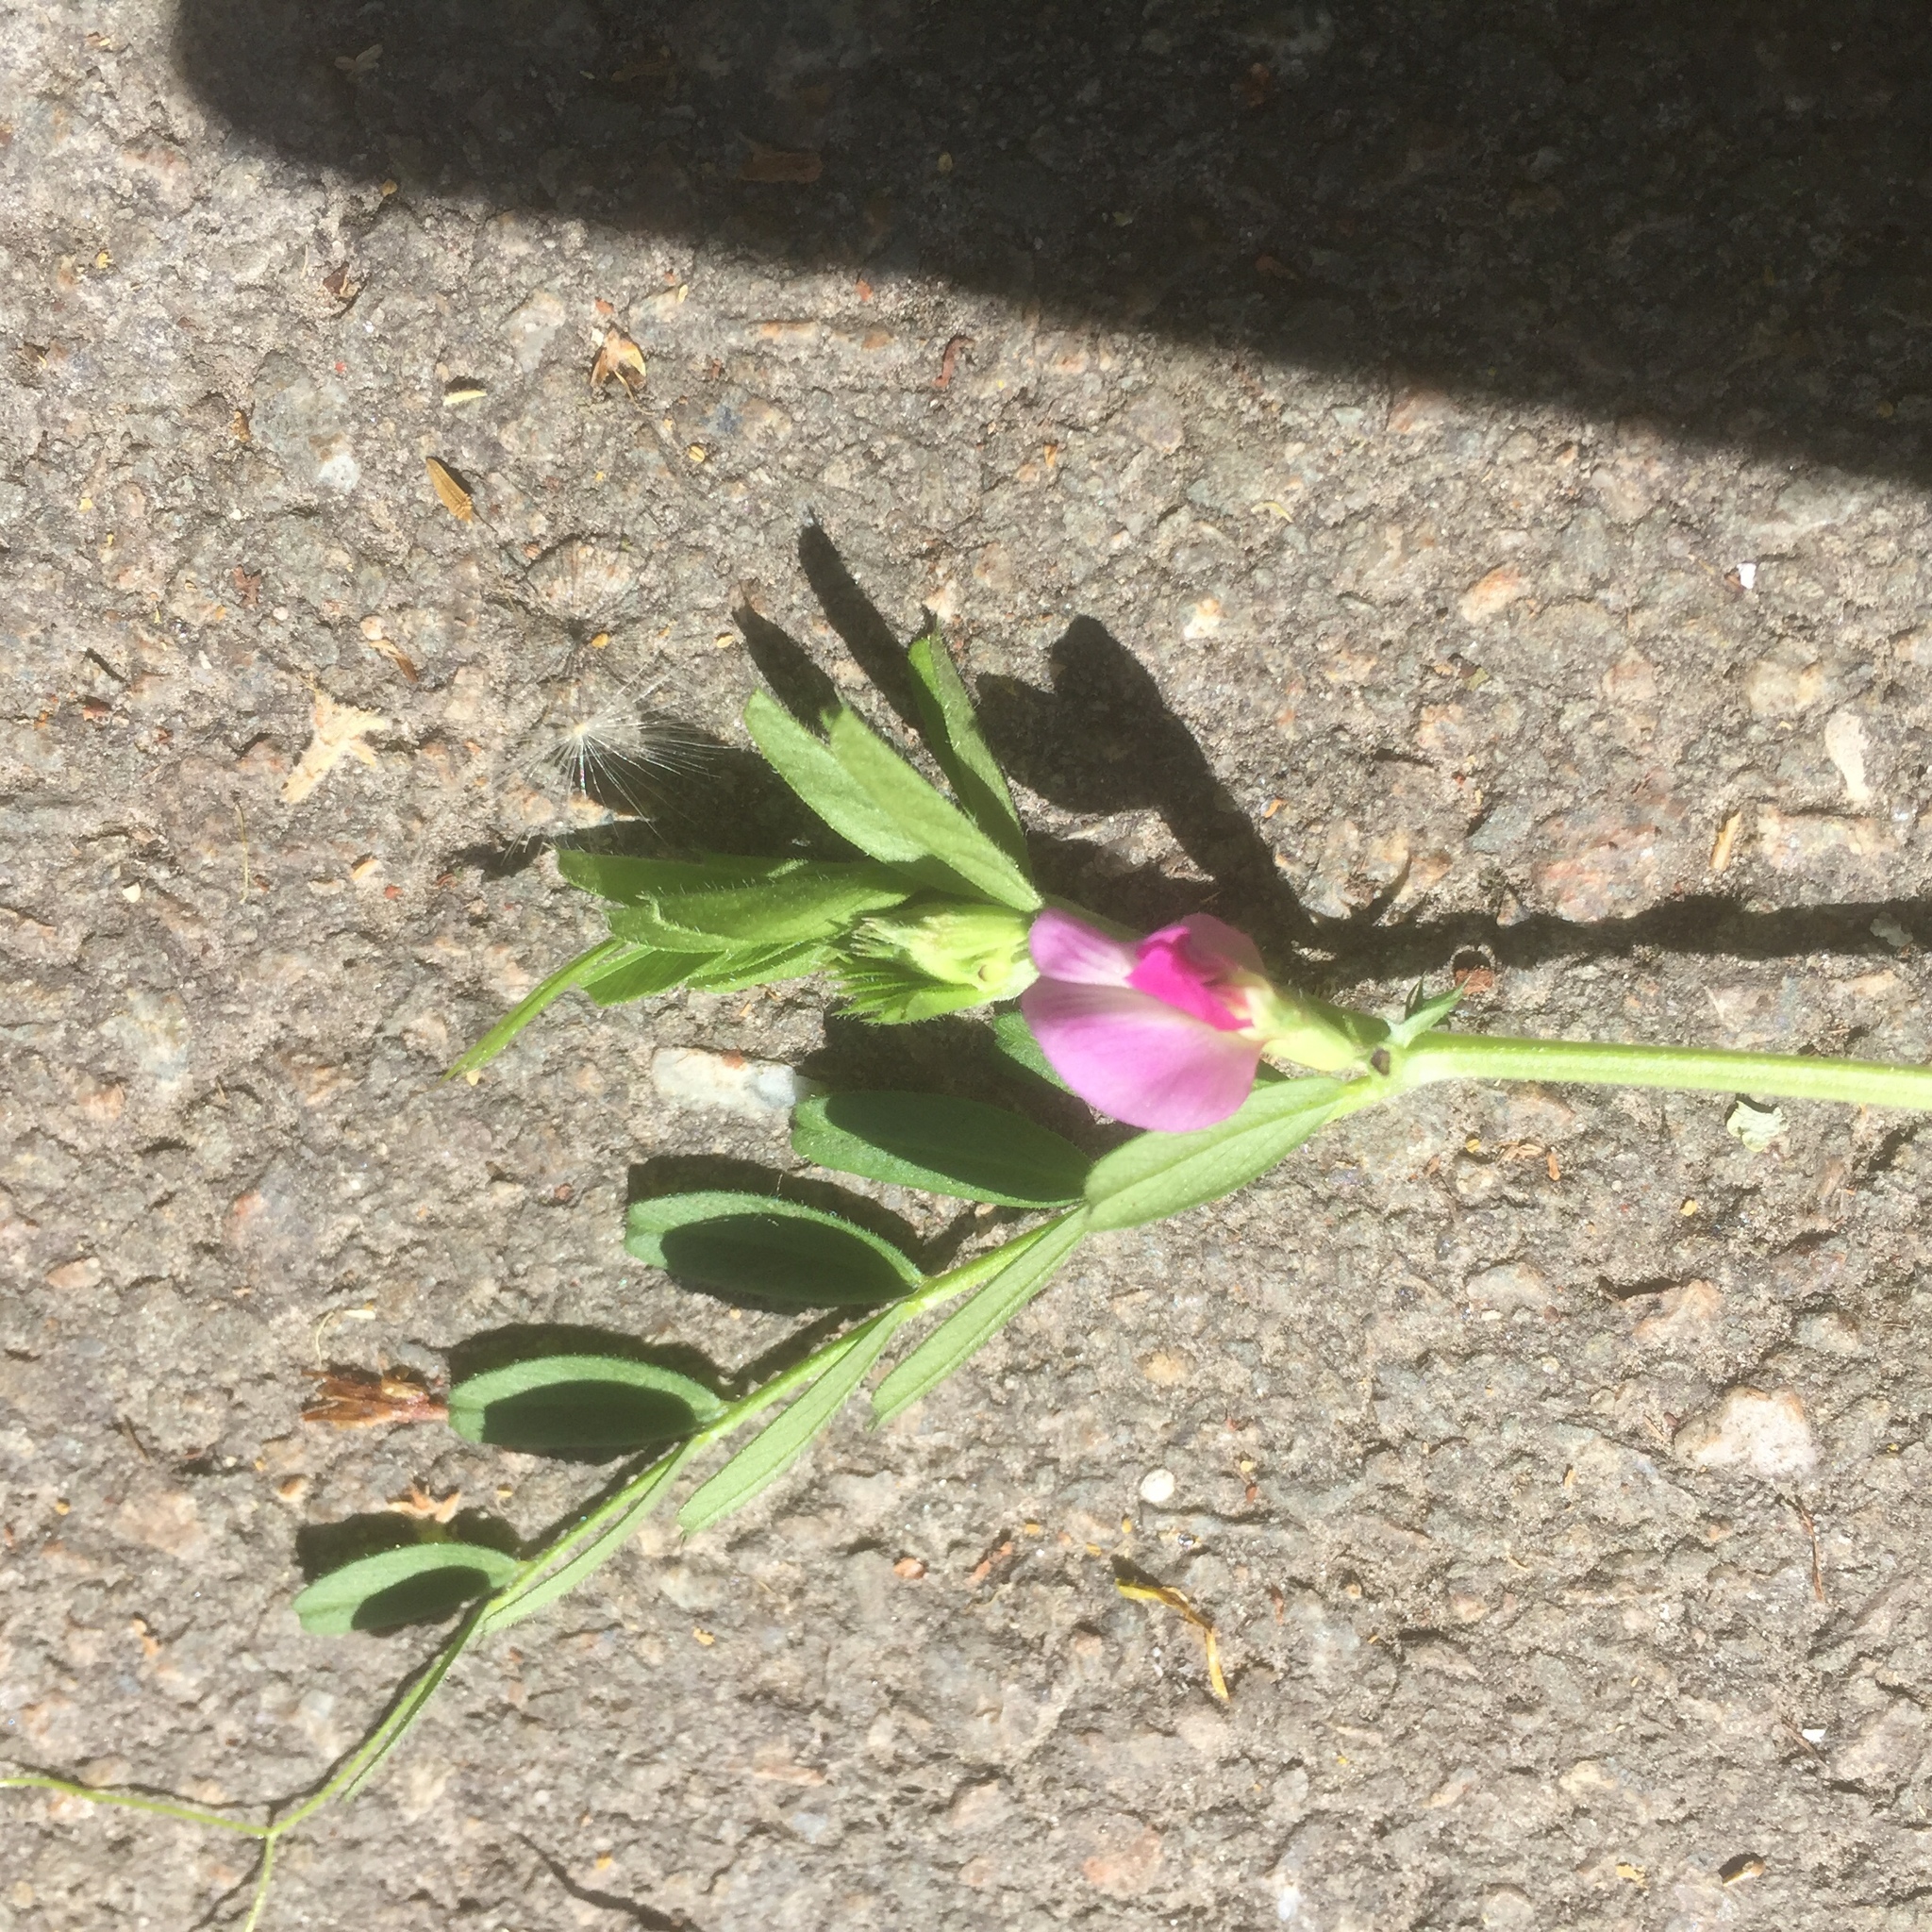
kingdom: Plantae
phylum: Tracheophyta
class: Magnoliopsida
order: Fabales
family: Fabaceae
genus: Vicia
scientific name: Vicia sativa
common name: Garden vetch
